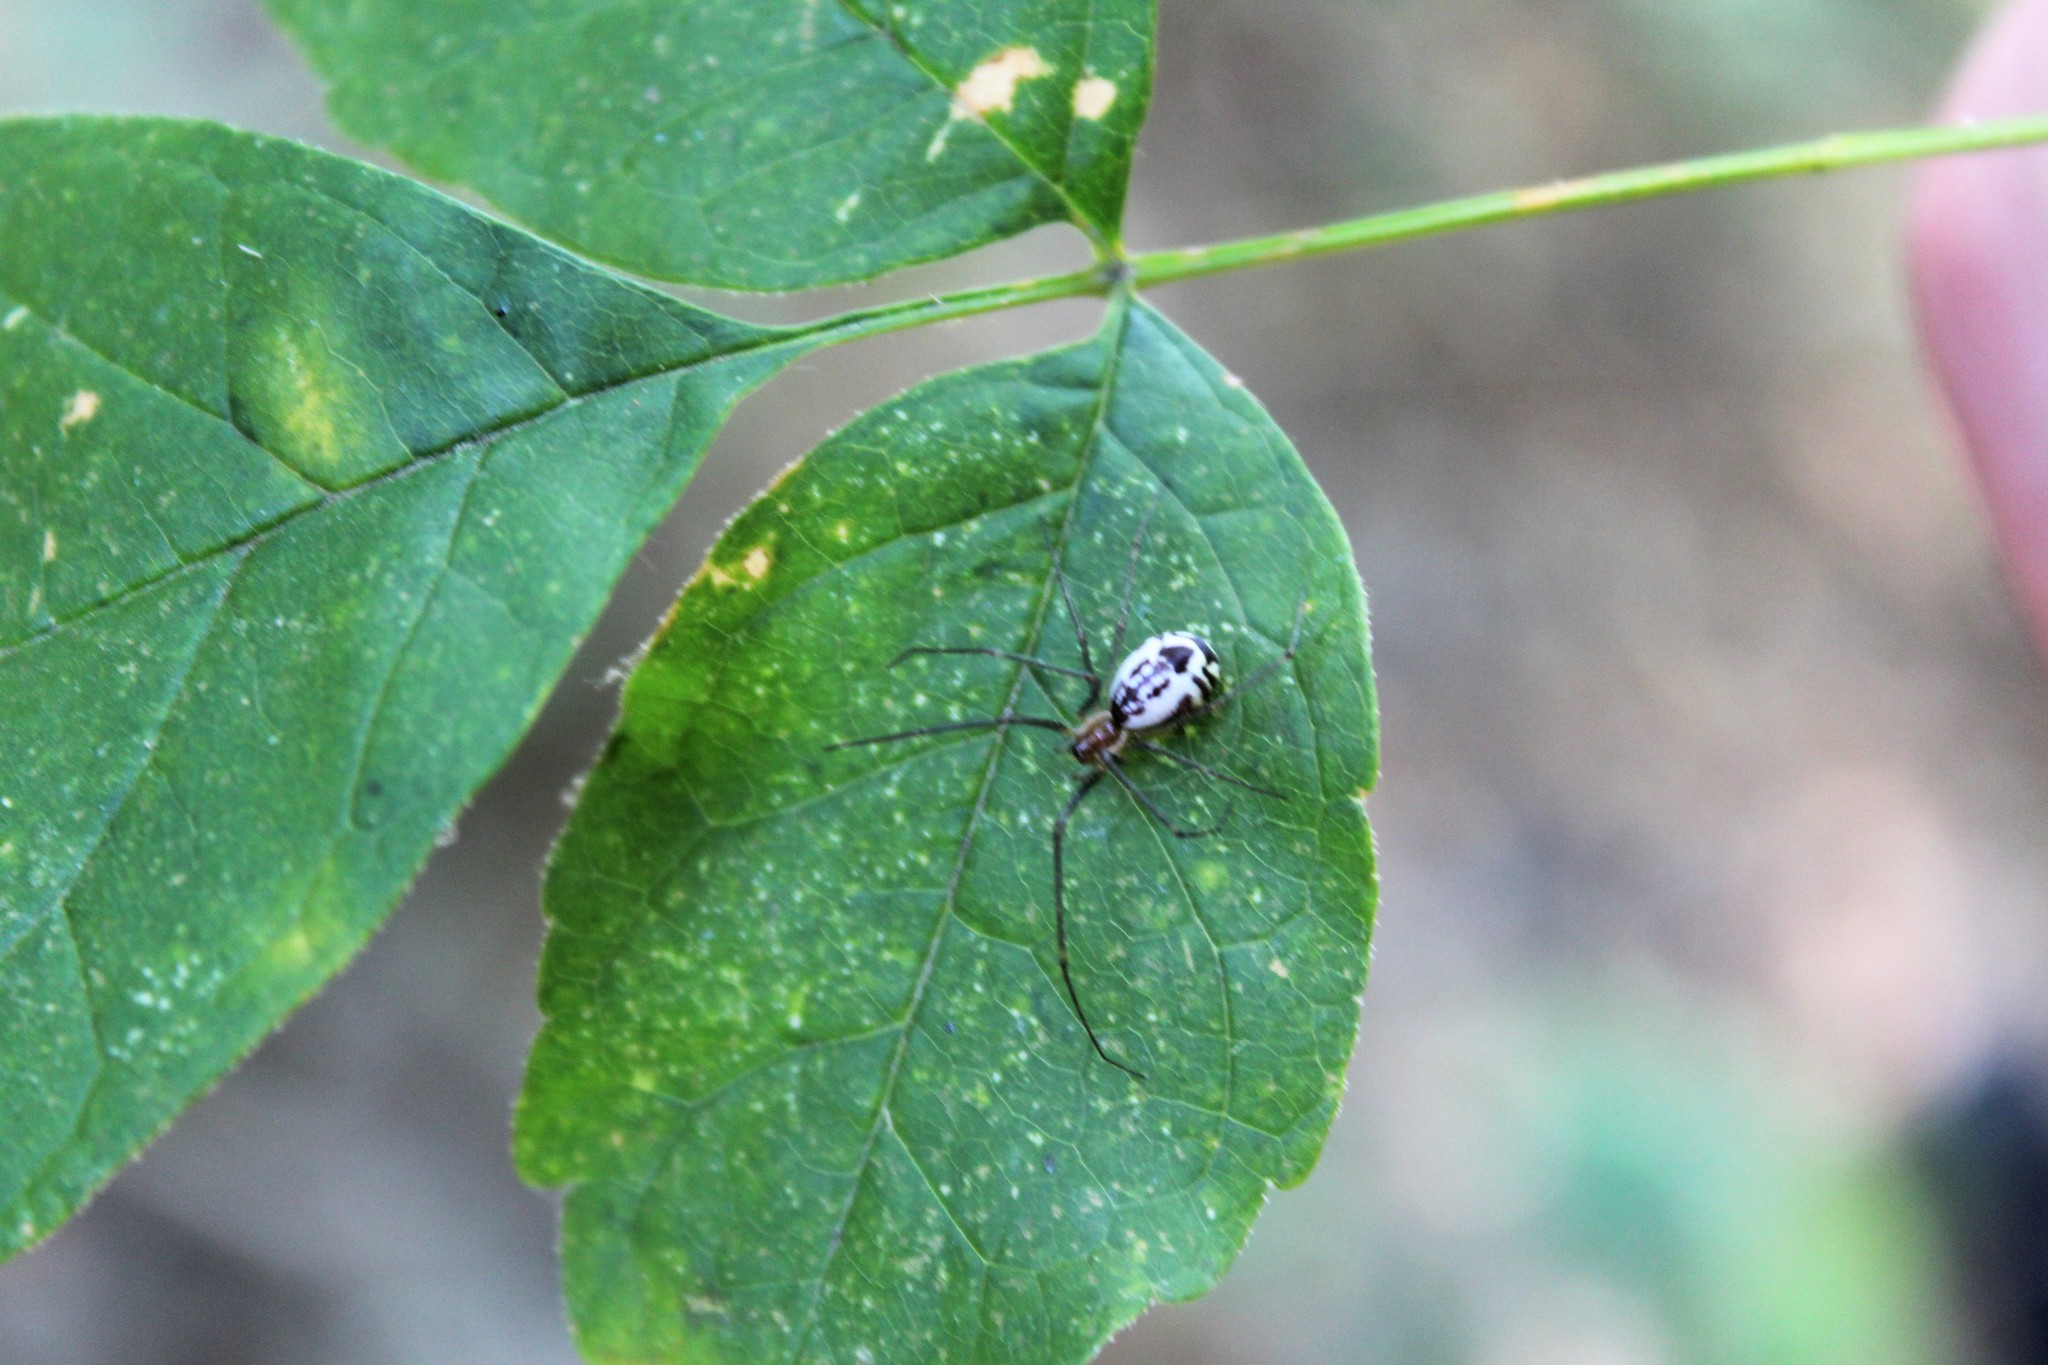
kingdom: Animalia
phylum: Arthropoda
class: Arachnida
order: Araneae
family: Linyphiidae
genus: Neriene
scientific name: Neriene radiata
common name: Filmy dome spider
